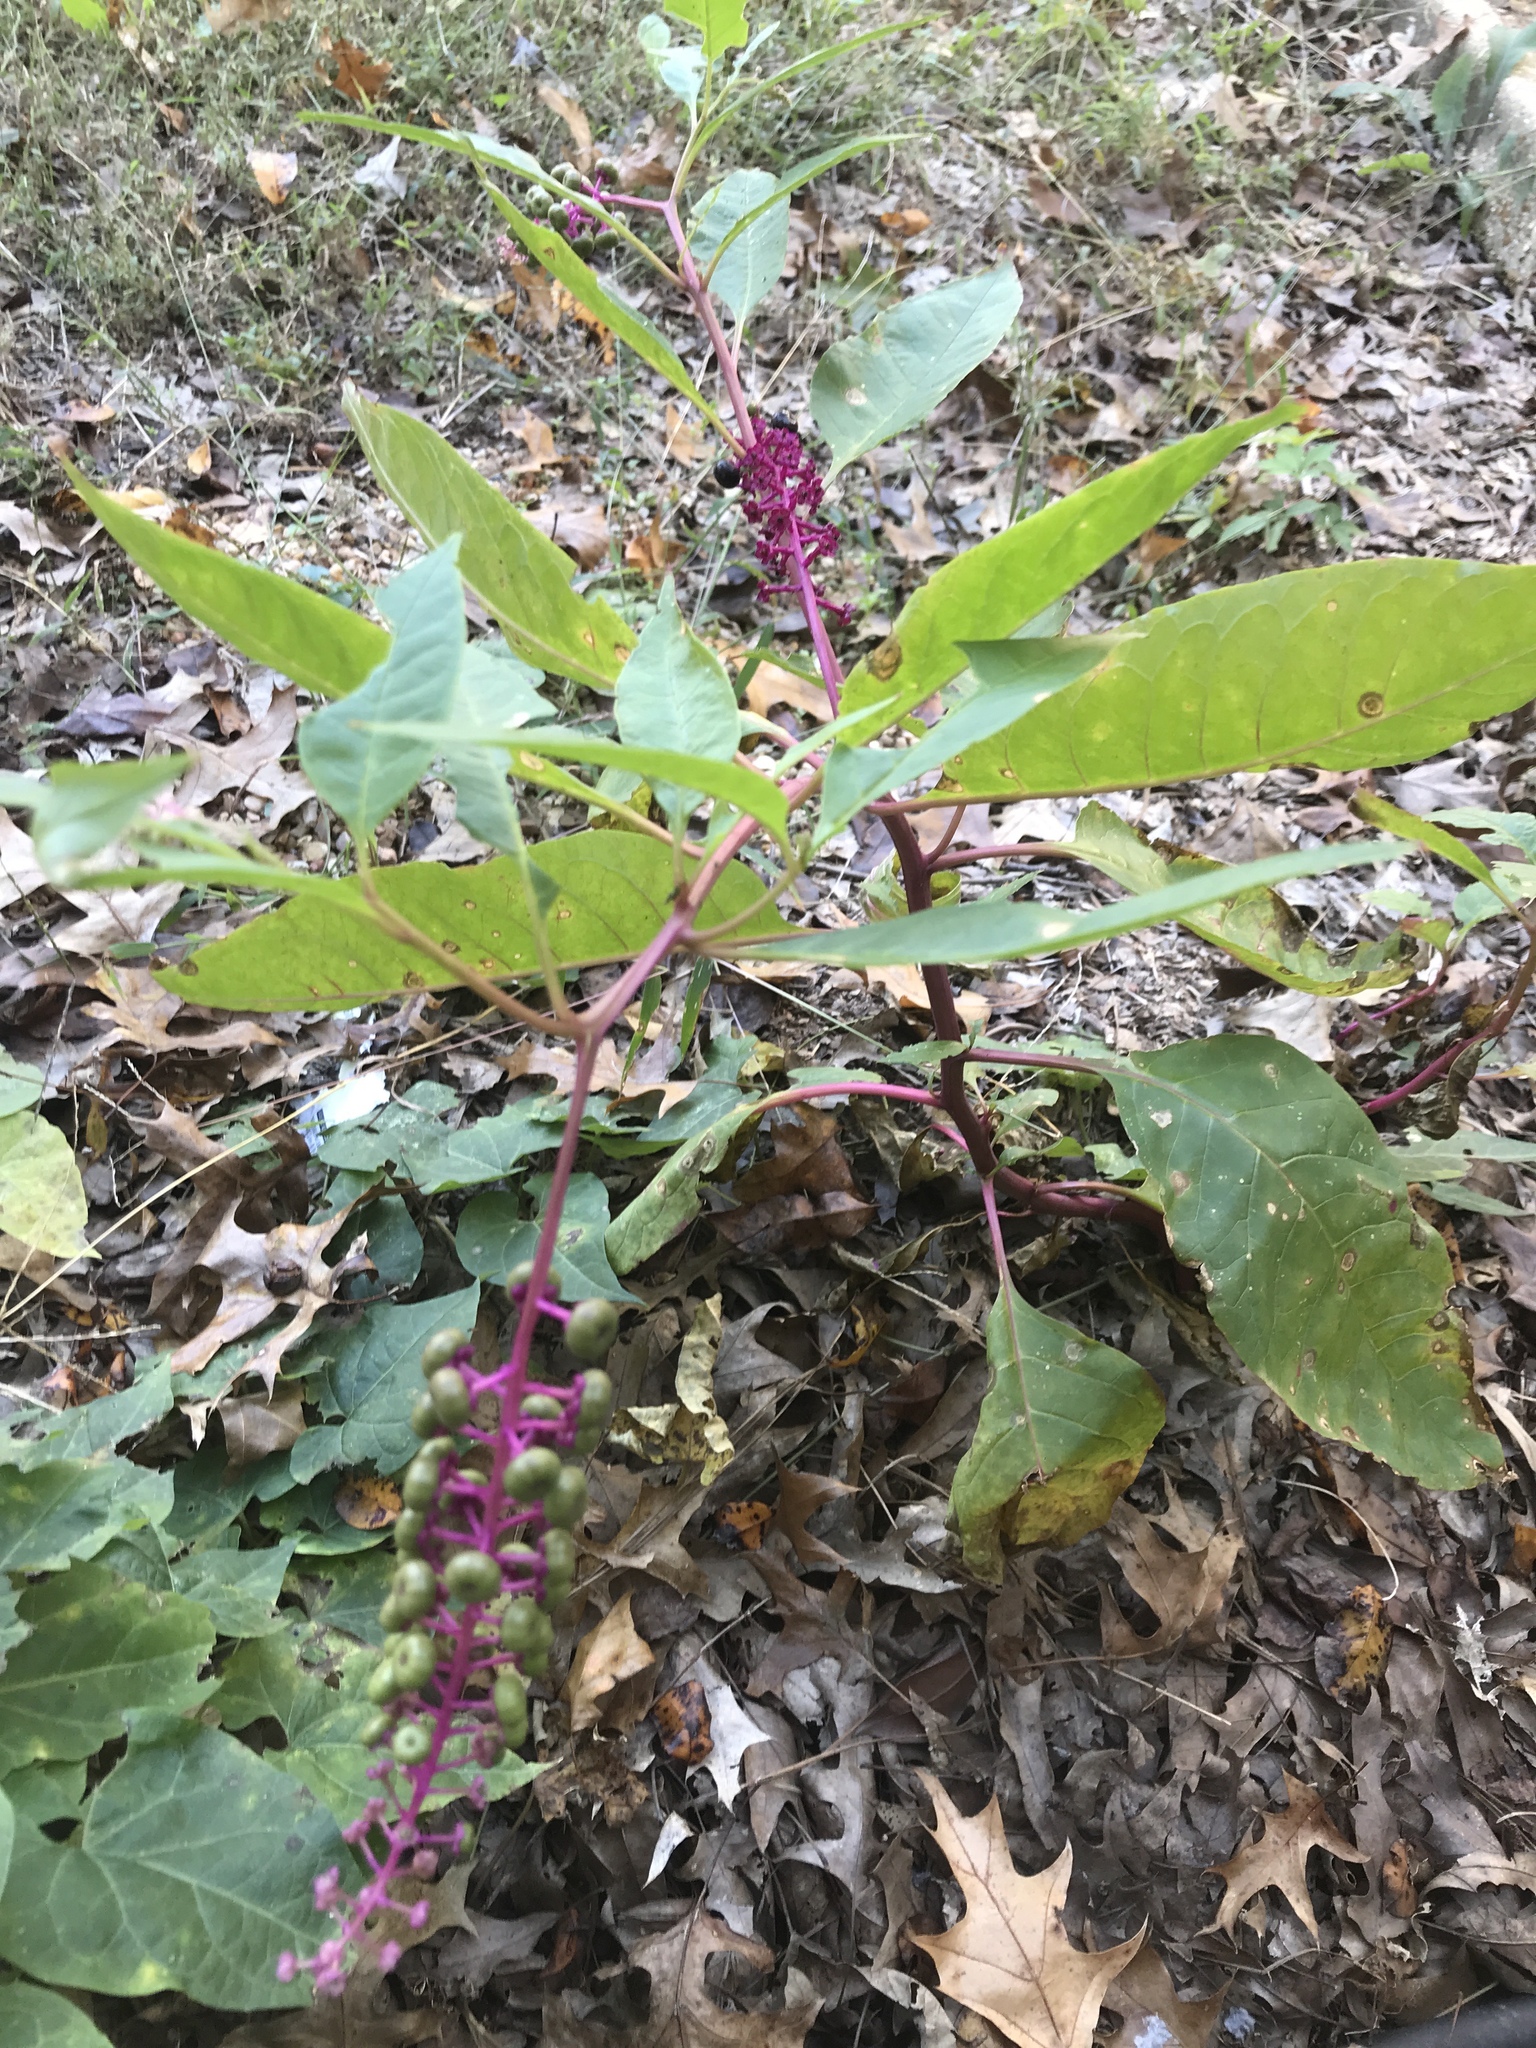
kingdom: Plantae
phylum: Tracheophyta
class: Magnoliopsida
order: Caryophyllales
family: Phytolaccaceae
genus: Phytolacca
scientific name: Phytolacca americana
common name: American pokeweed
